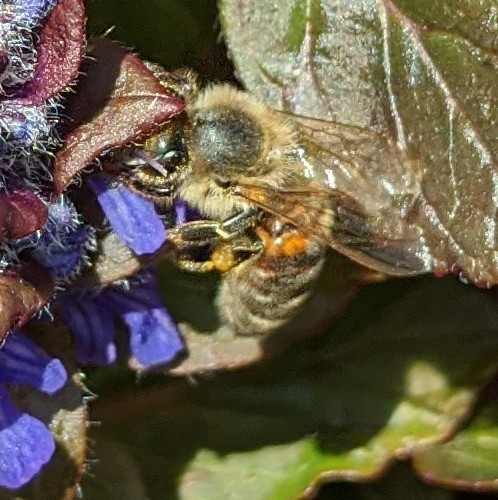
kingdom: Animalia
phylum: Arthropoda
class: Insecta
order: Hymenoptera
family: Apidae
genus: Apis
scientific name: Apis mellifera
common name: Honey bee
